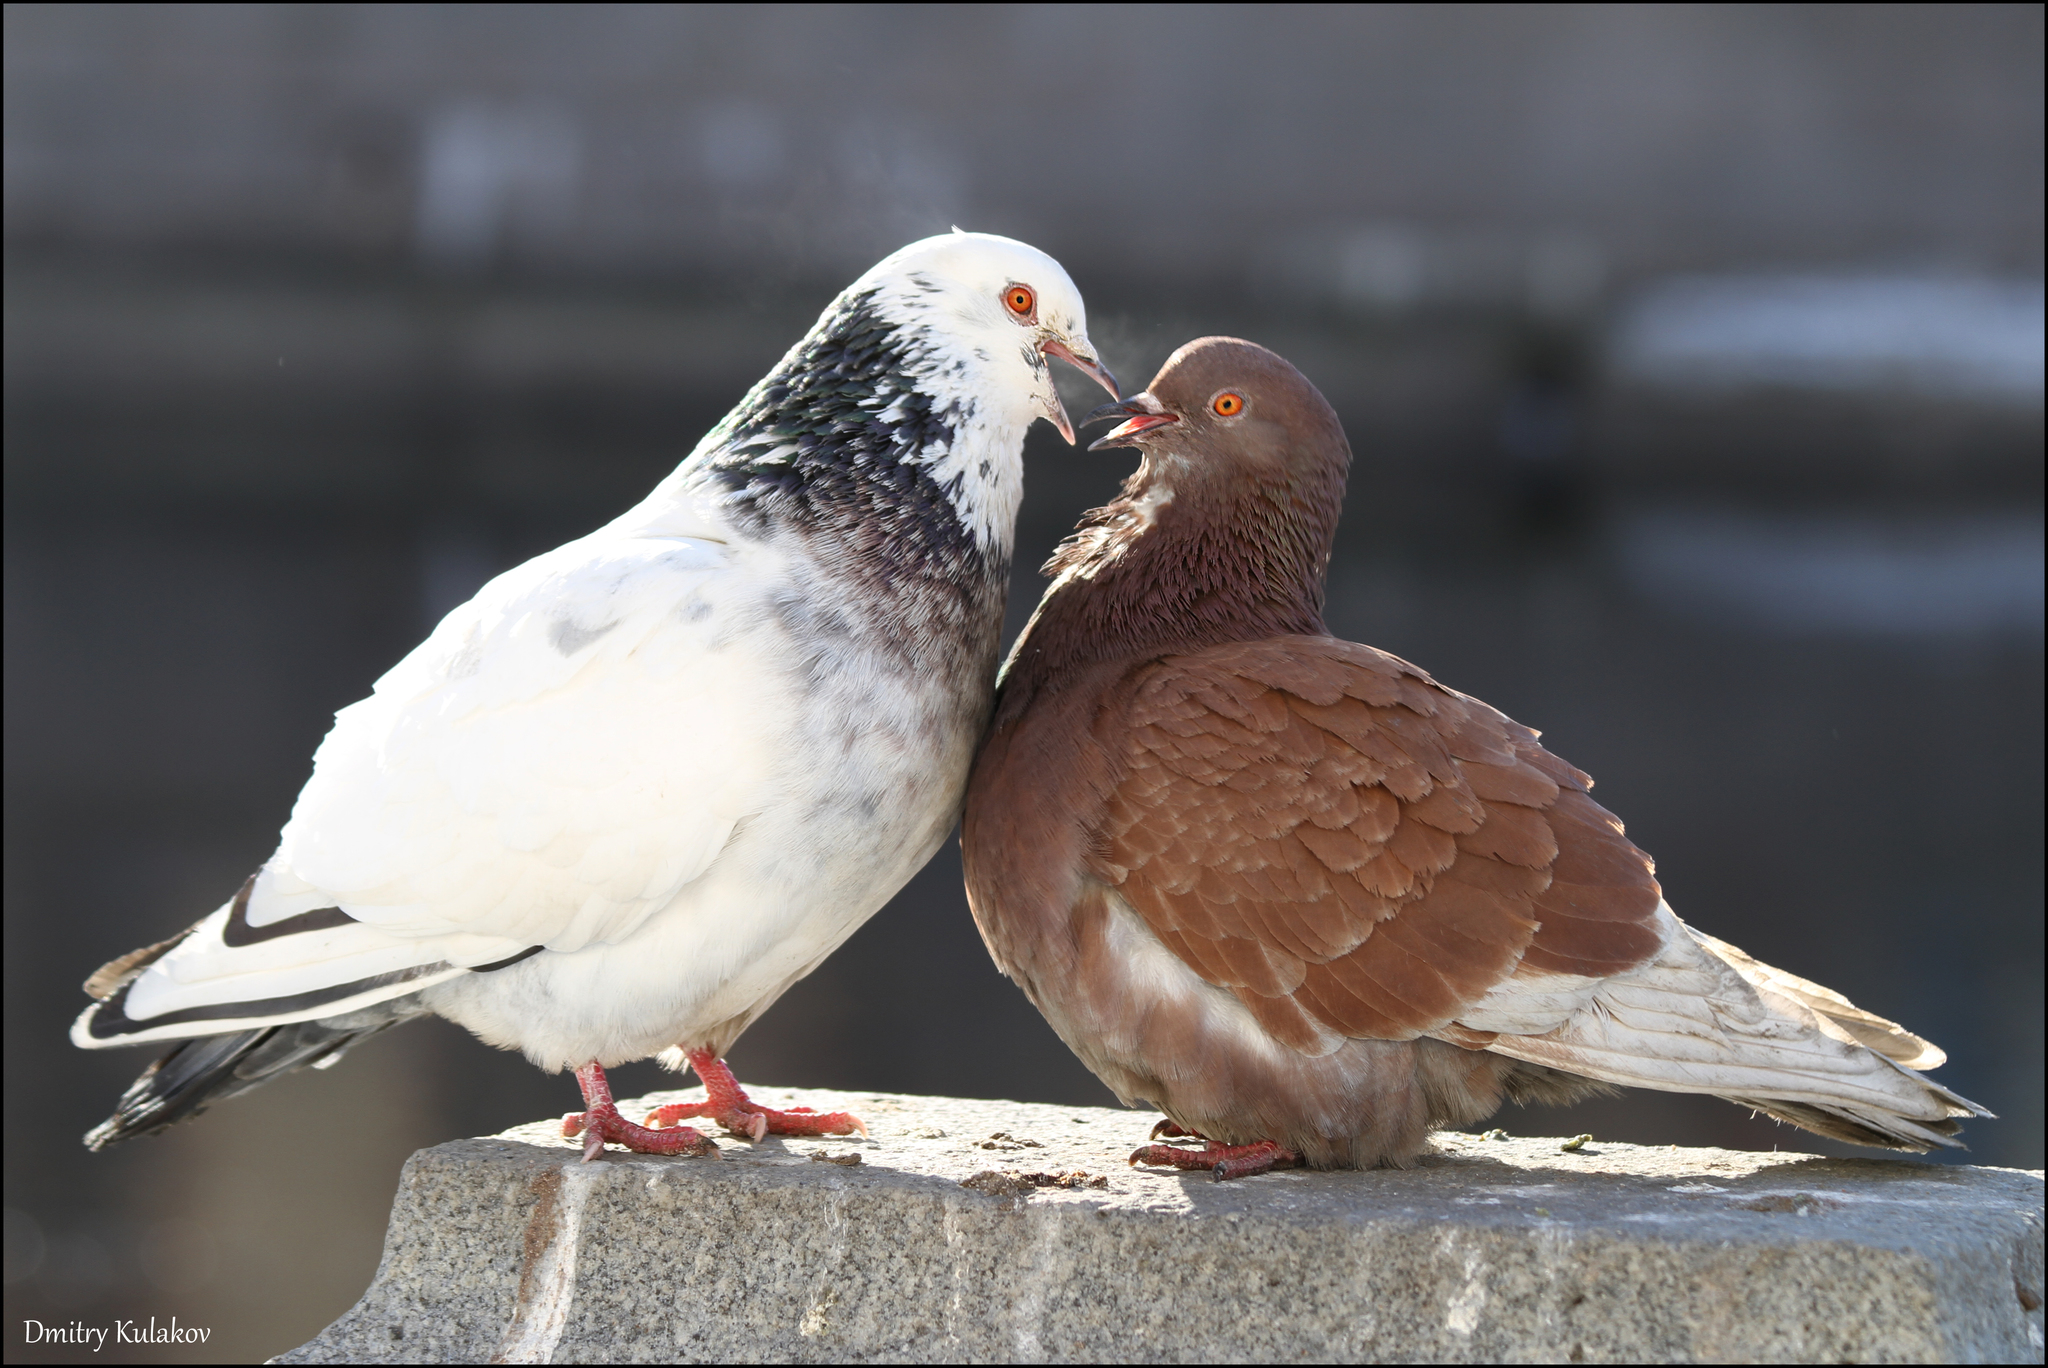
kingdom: Animalia
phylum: Chordata
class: Aves
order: Columbiformes
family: Columbidae
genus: Columba
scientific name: Columba livia
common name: Rock pigeon
